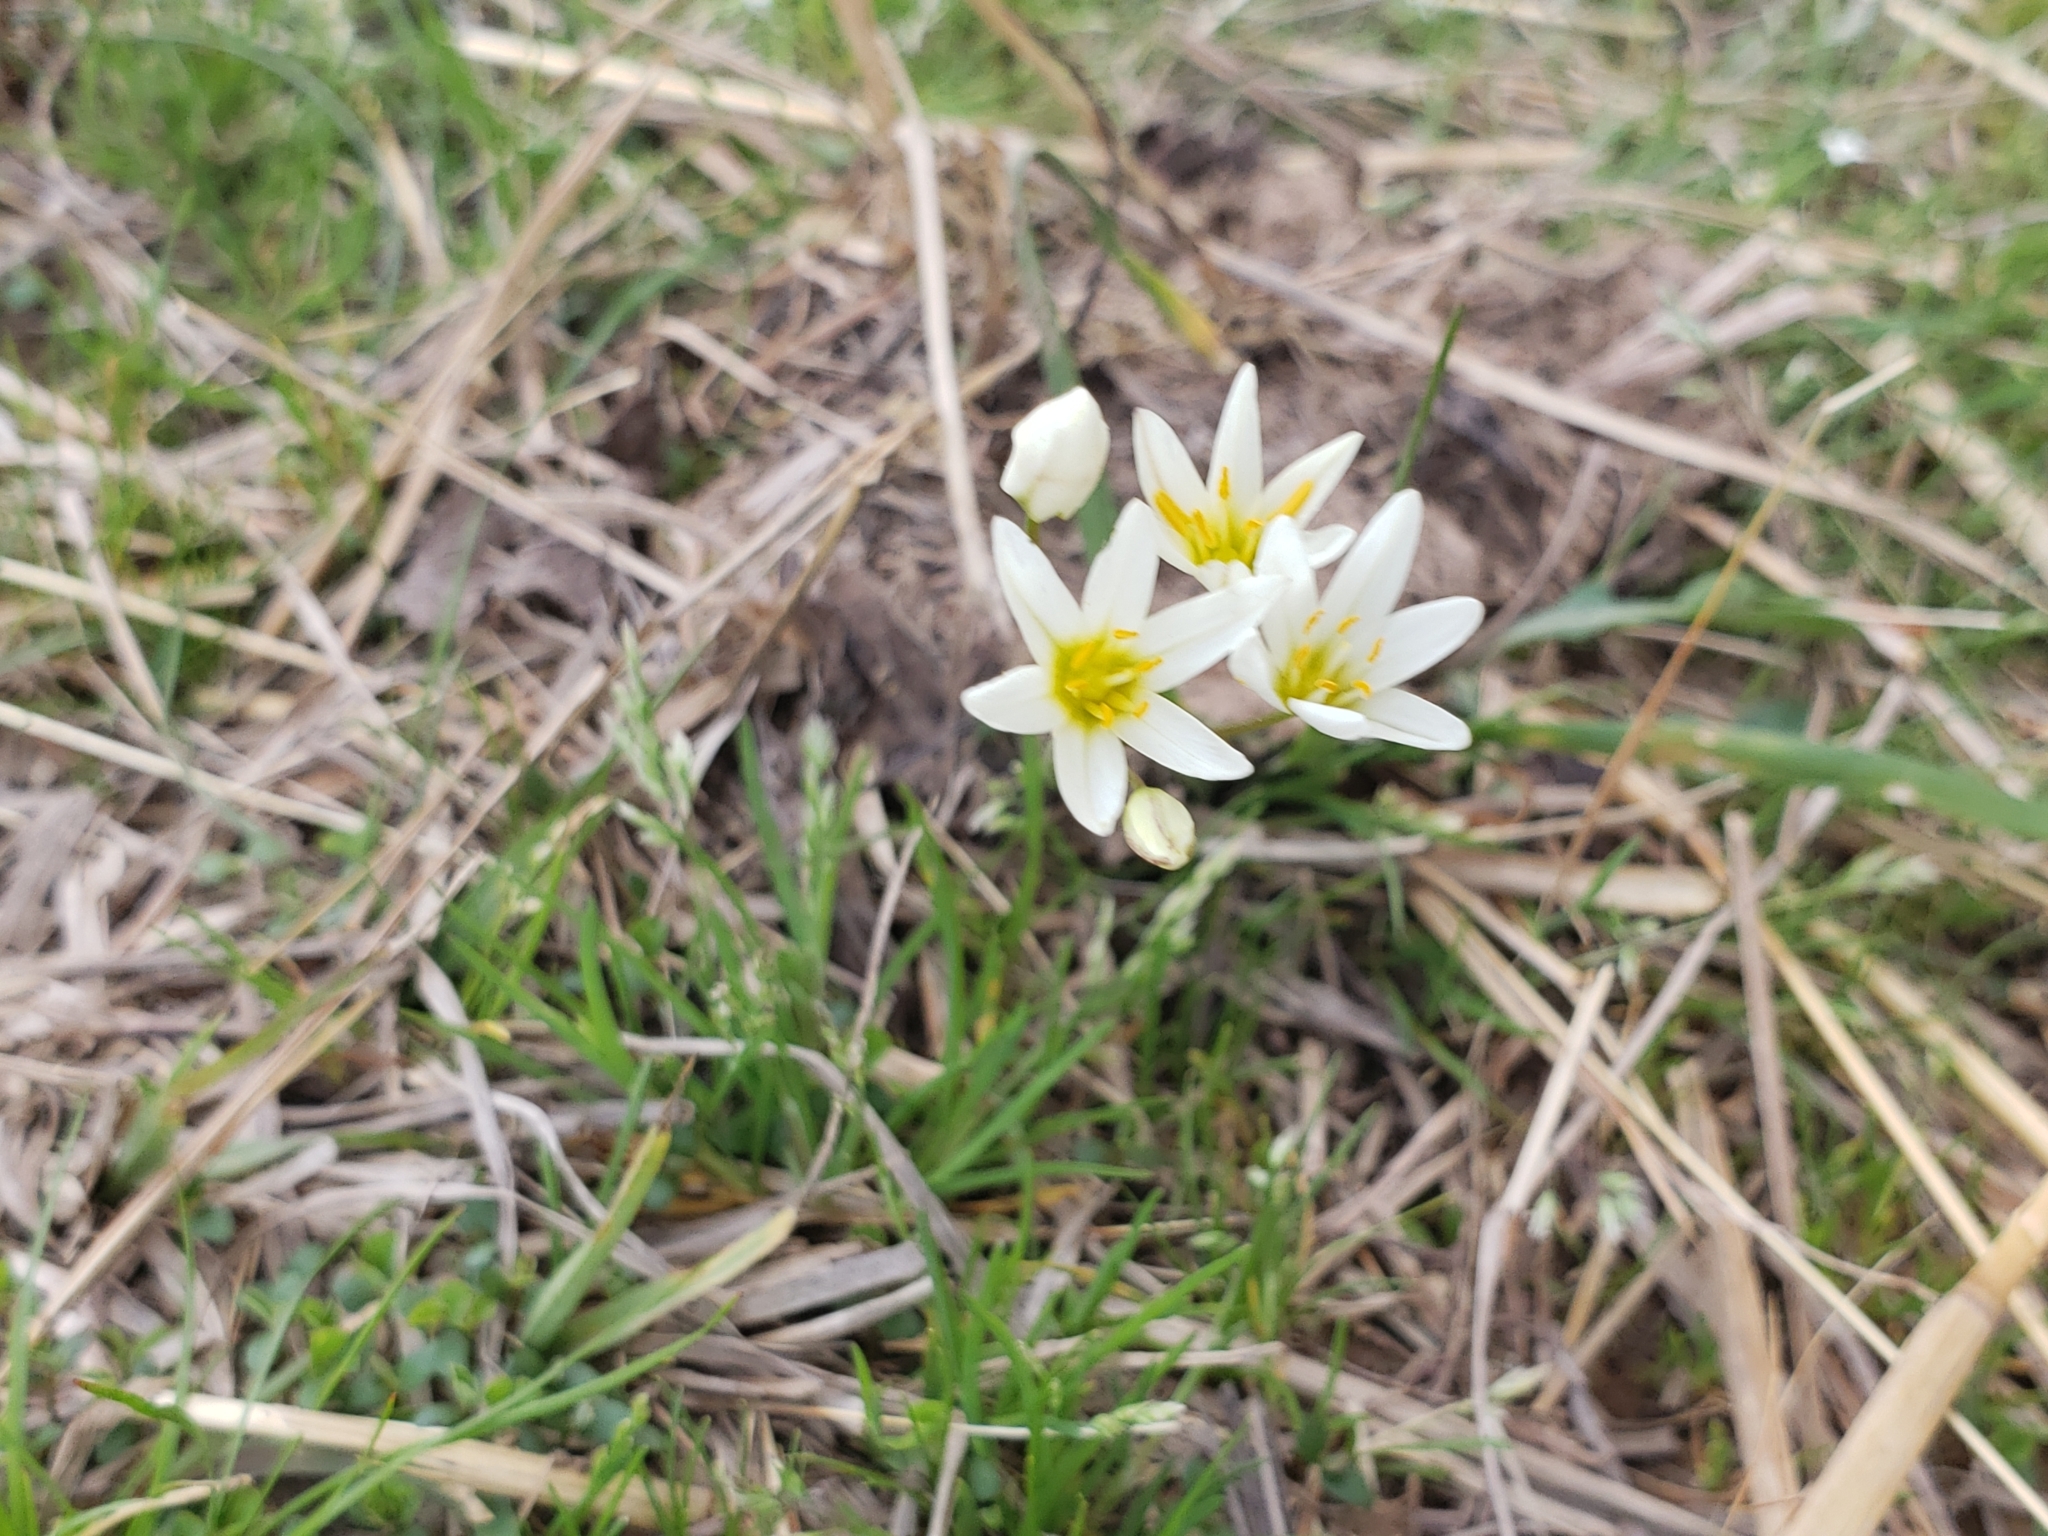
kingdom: Plantae
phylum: Tracheophyta
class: Liliopsida
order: Asparagales
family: Amaryllidaceae
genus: Nothoscordum
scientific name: Nothoscordum bivalve
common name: Crow-poison
